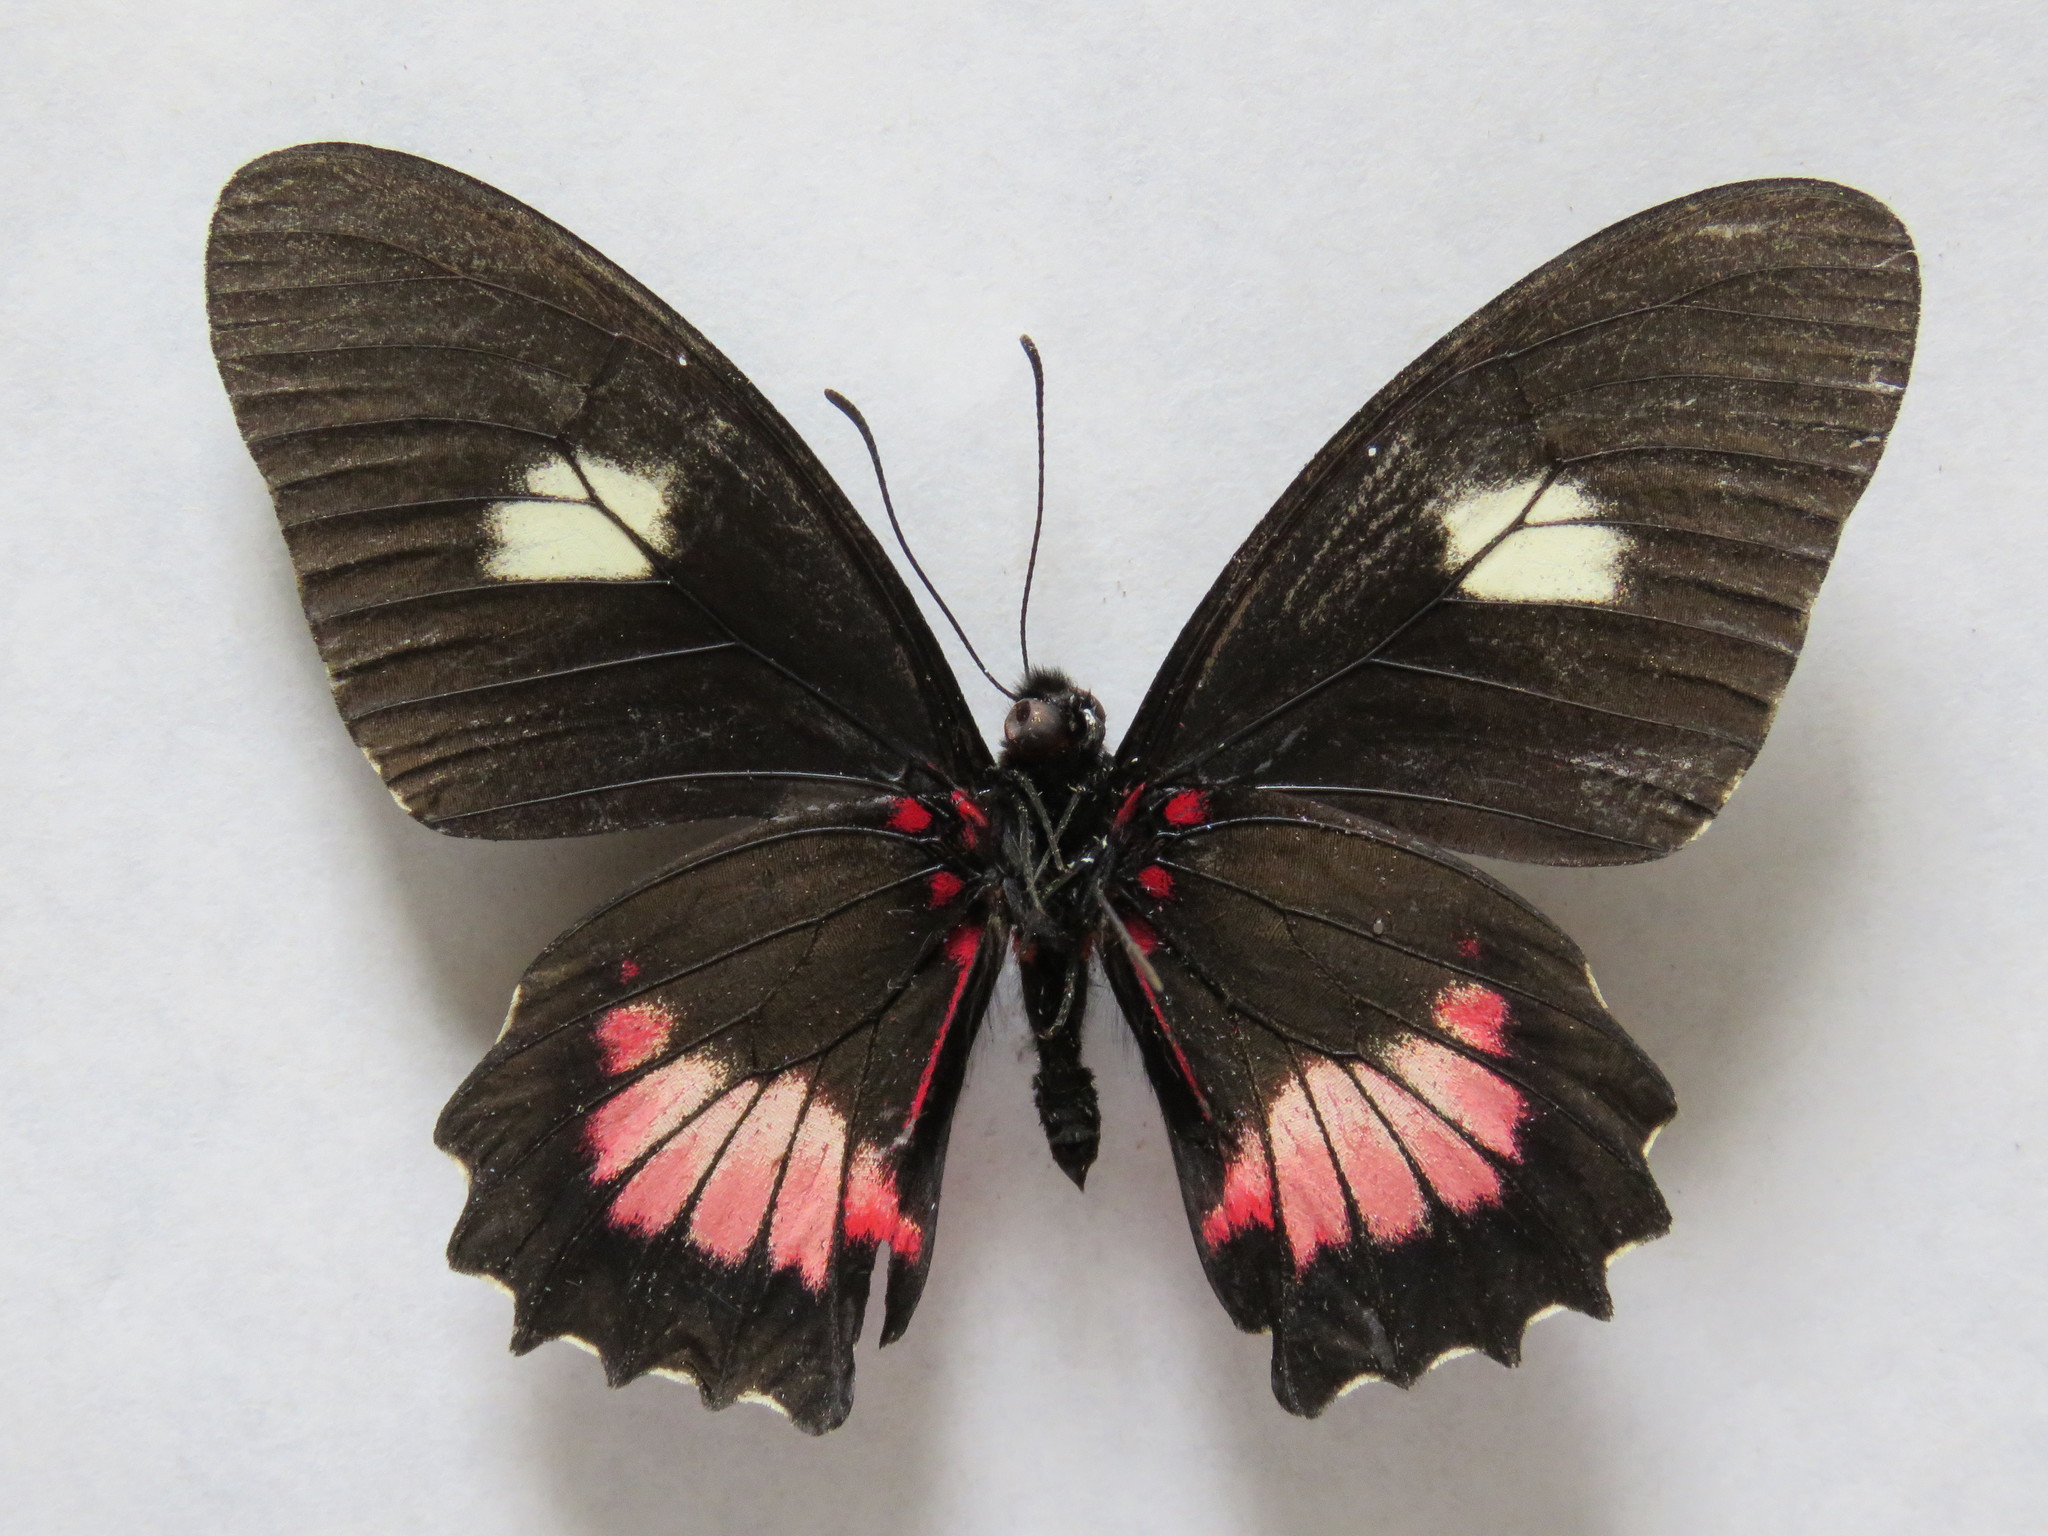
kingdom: Animalia
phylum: Arthropoda
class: Insecta
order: Lepidoptera
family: Papilionidae
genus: Mimoides
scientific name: Mimoides ilus
